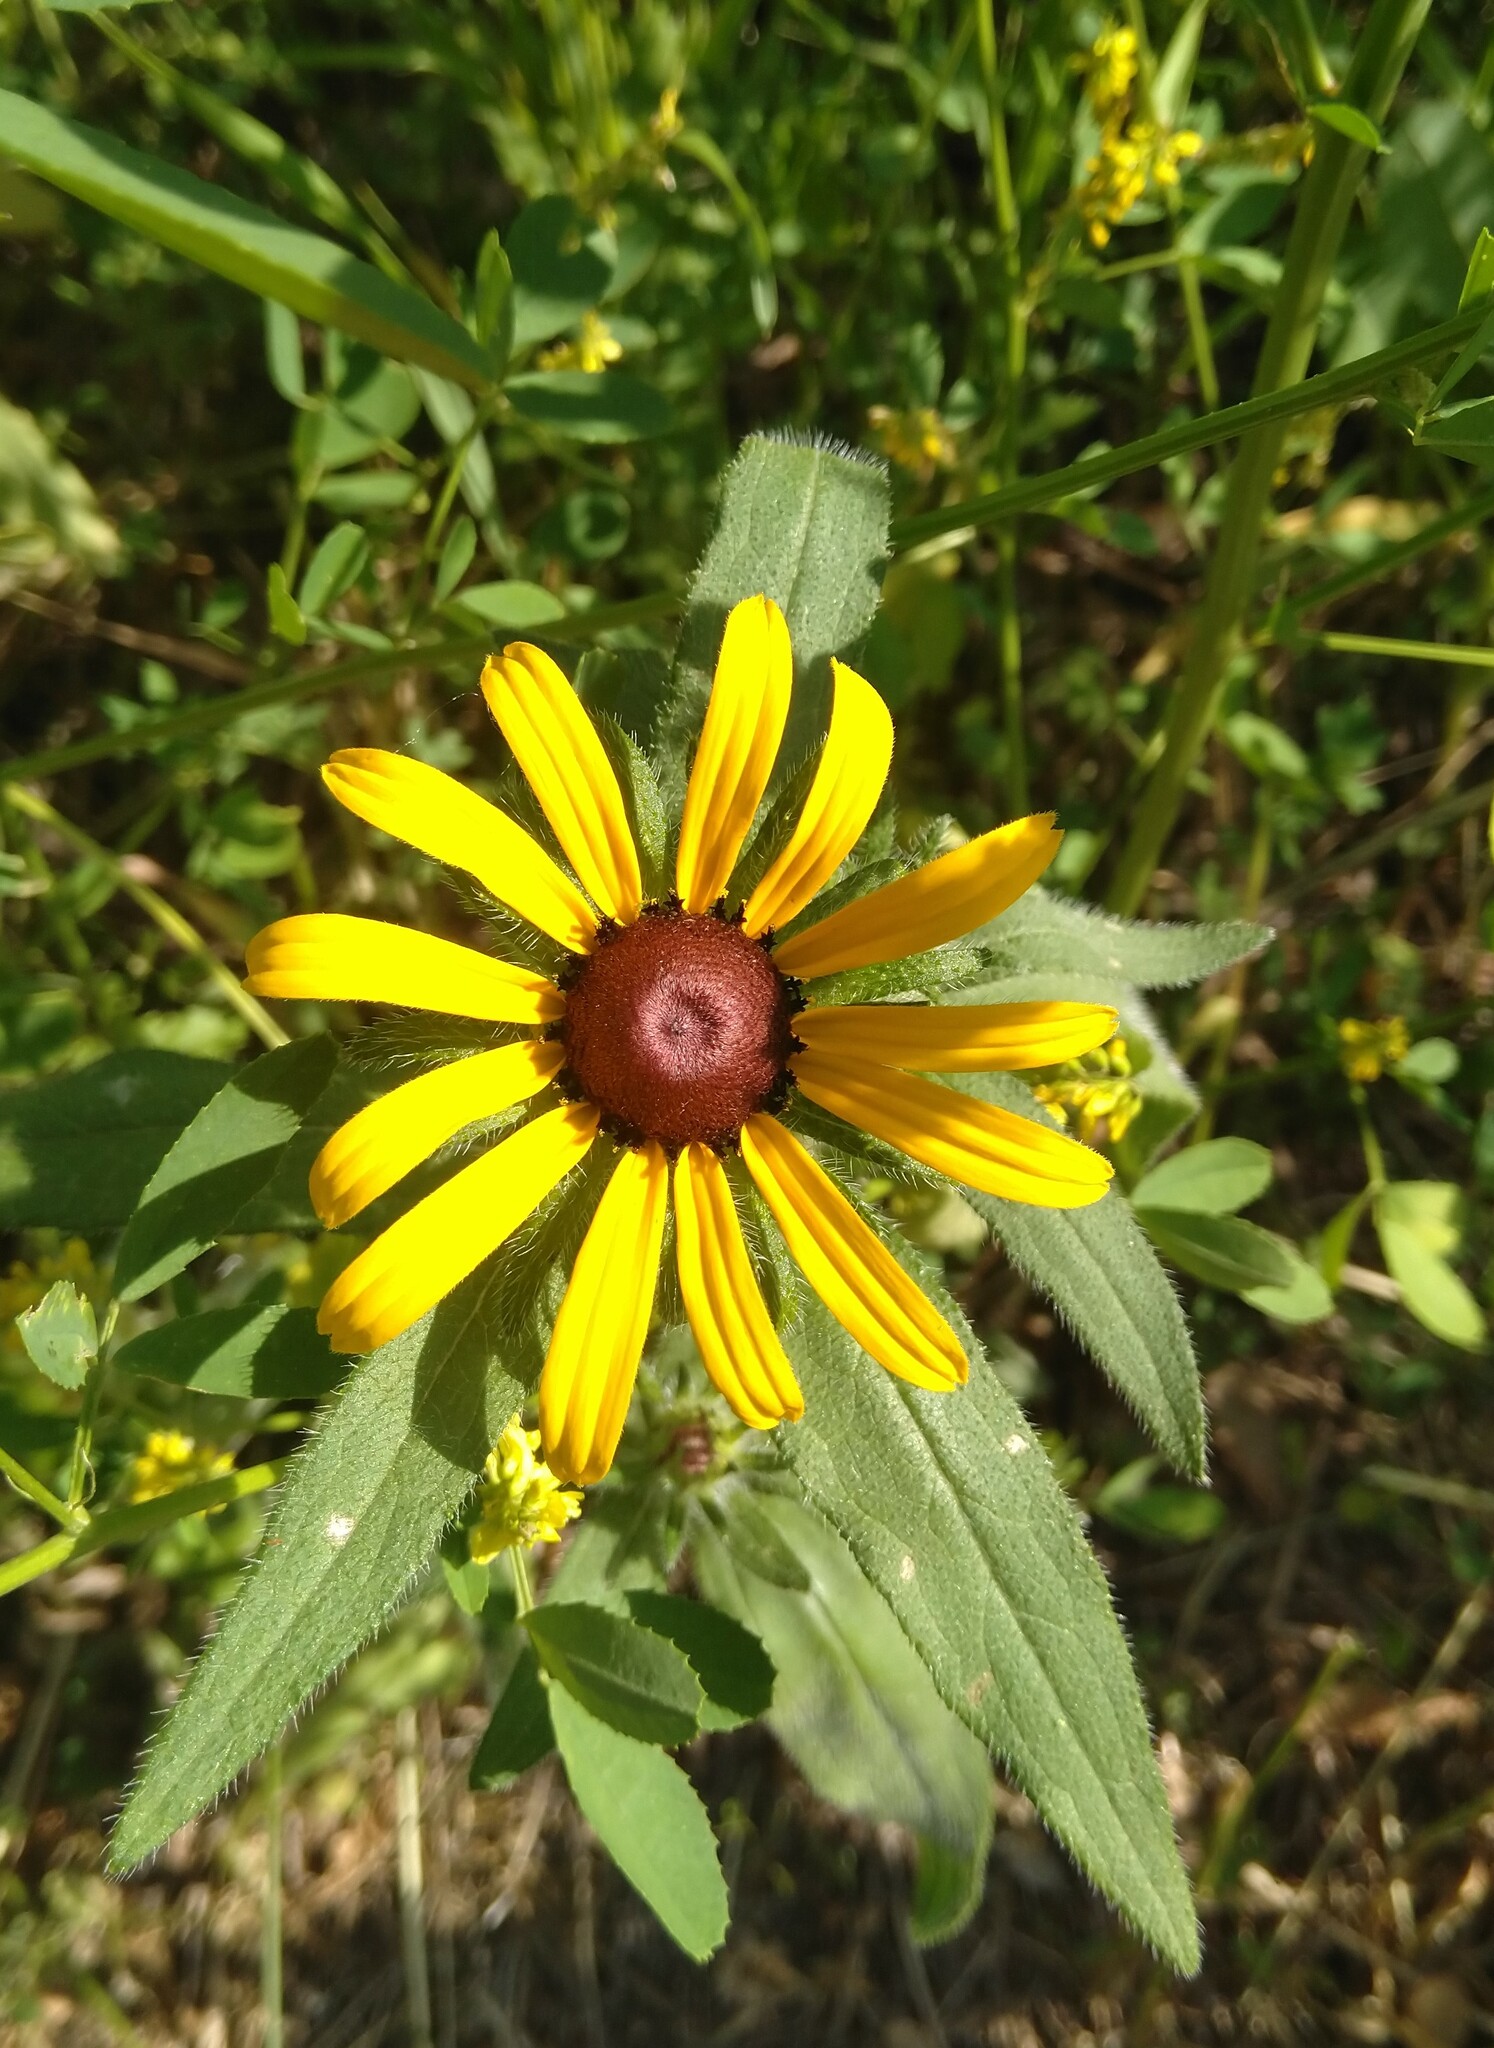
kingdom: Plantae
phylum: Tracheophyta
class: Magnoliopsida
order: Asterales
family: Asteraceae
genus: Rudbeckia
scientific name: Rudbeckia hirta
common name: Black-eyed-susan
